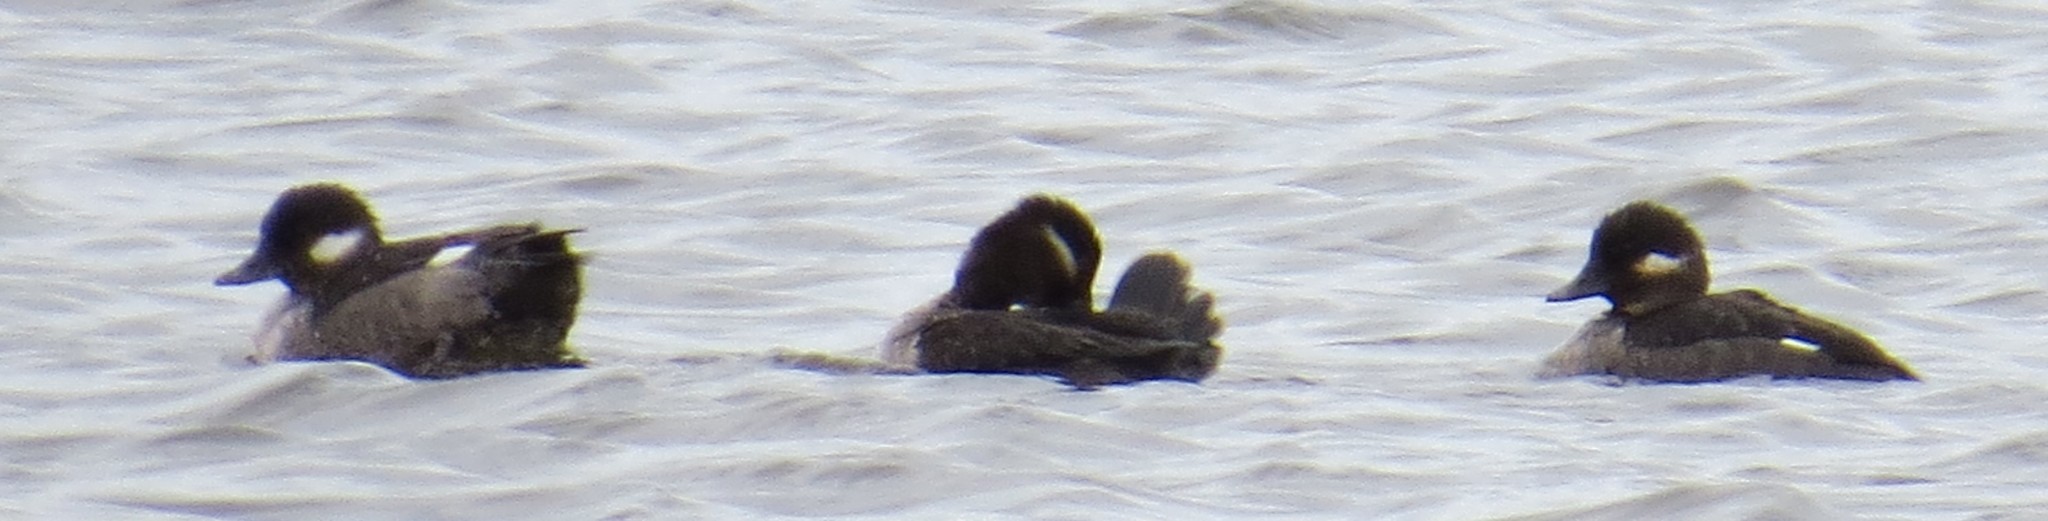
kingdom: Animalia
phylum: Chordata
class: Aves
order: Anseriformes
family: Anatidae
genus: Bucephala
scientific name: Bucephala albeola
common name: Bufflehead
